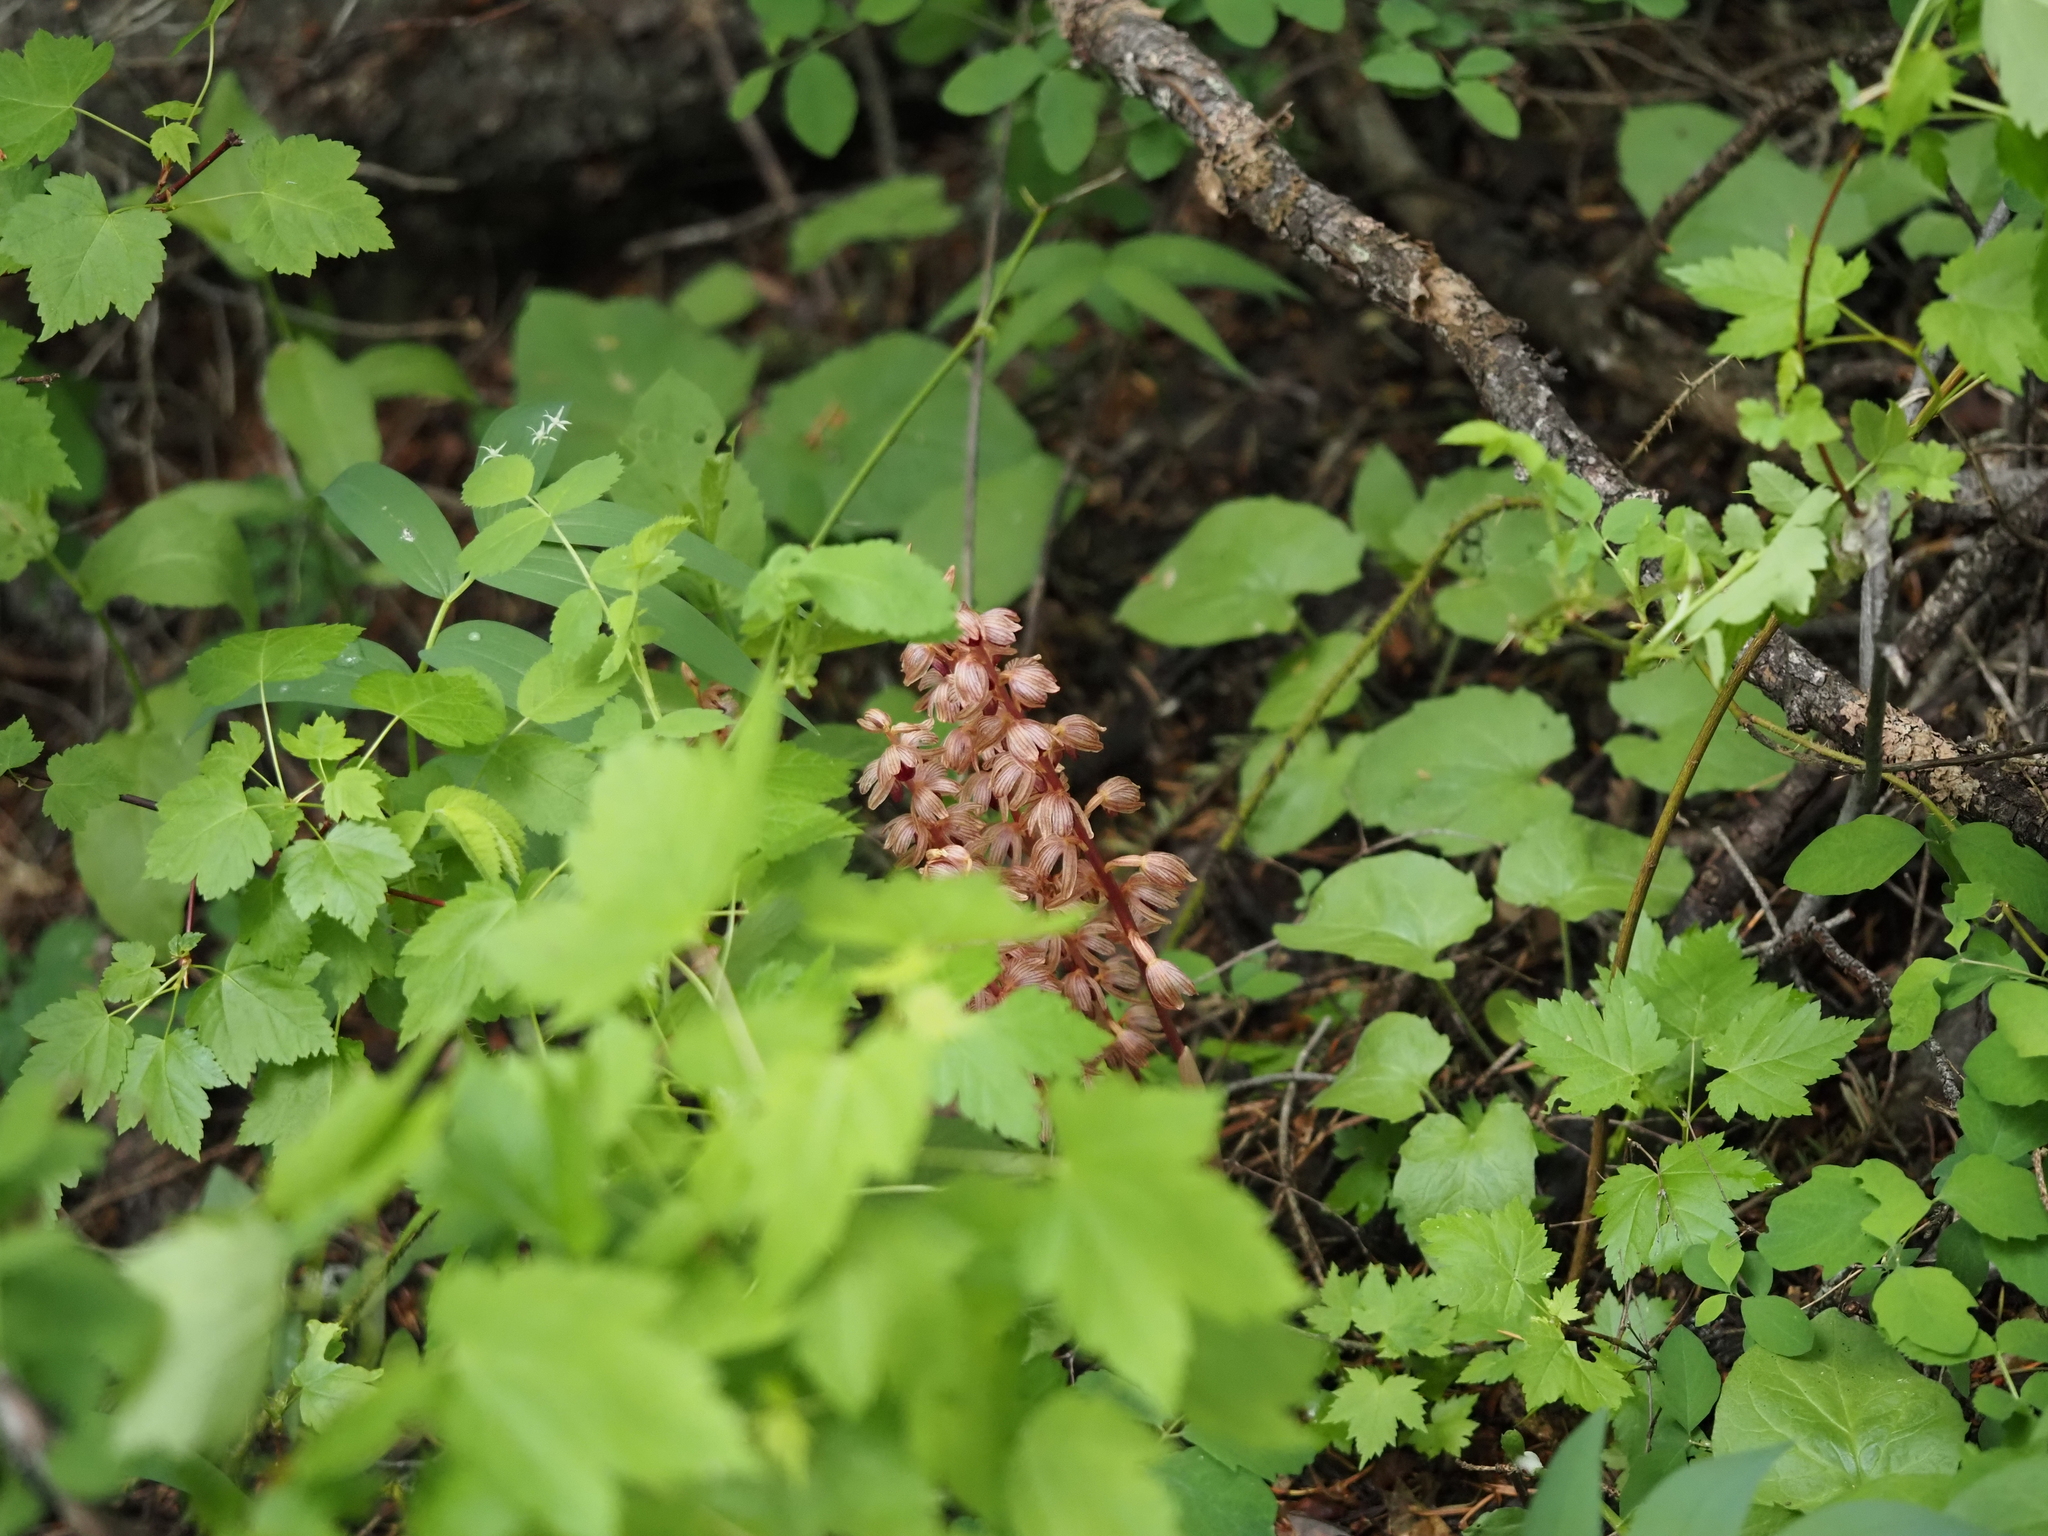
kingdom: Plantae
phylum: Tracheophyta
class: Liliopsida
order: Asparagales
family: Orchidaceae
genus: Corallorhiza
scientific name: Corallorhiza striata
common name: Hooded coralroot
